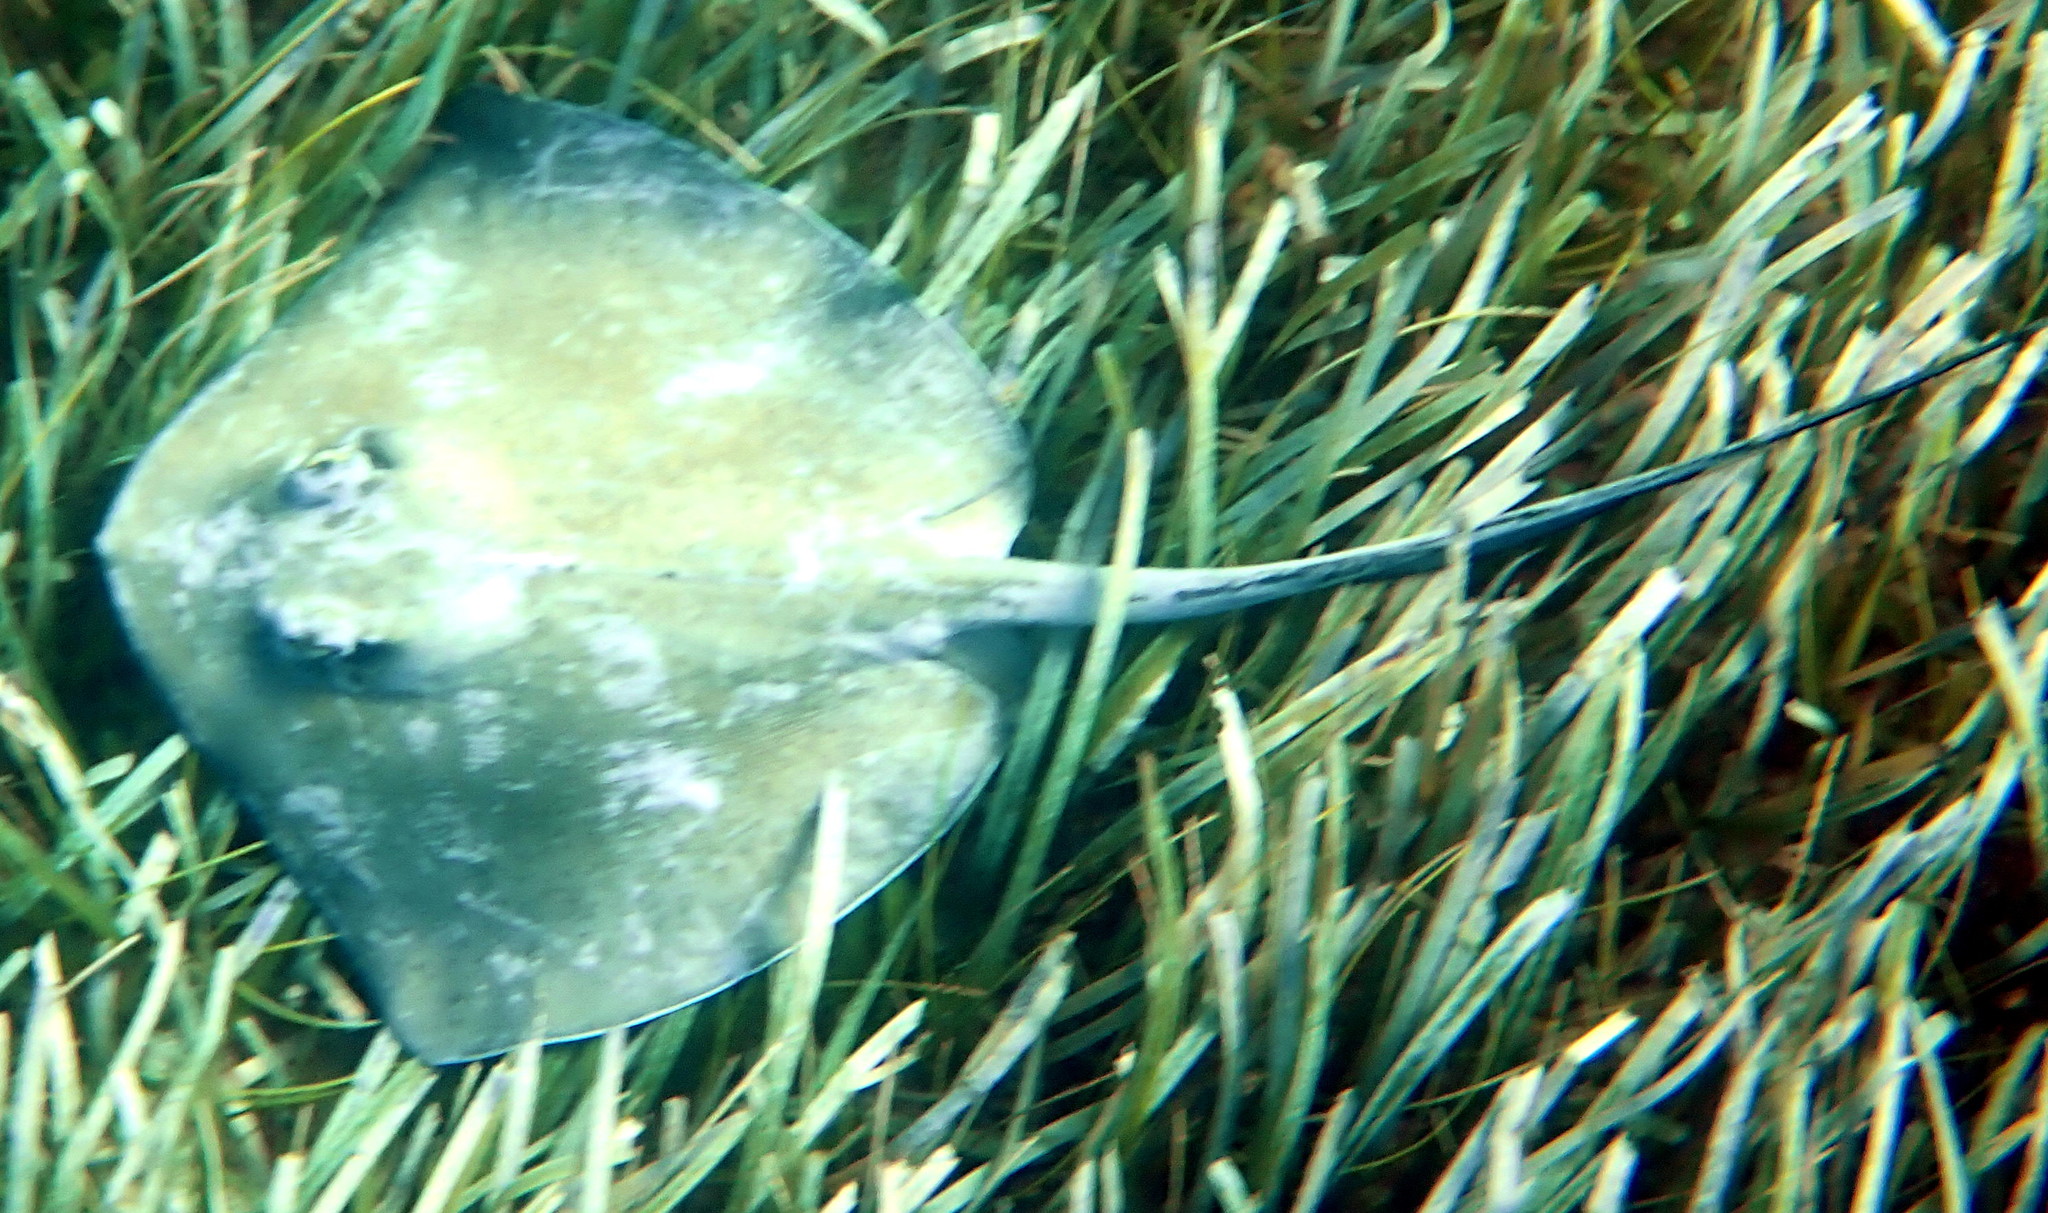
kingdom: Animalia
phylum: Chordata
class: Elasmobranchii
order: Myliobatiformes
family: Dasyatidae
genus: Hypanus
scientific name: Hypanus americanus
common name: Southern stingray
